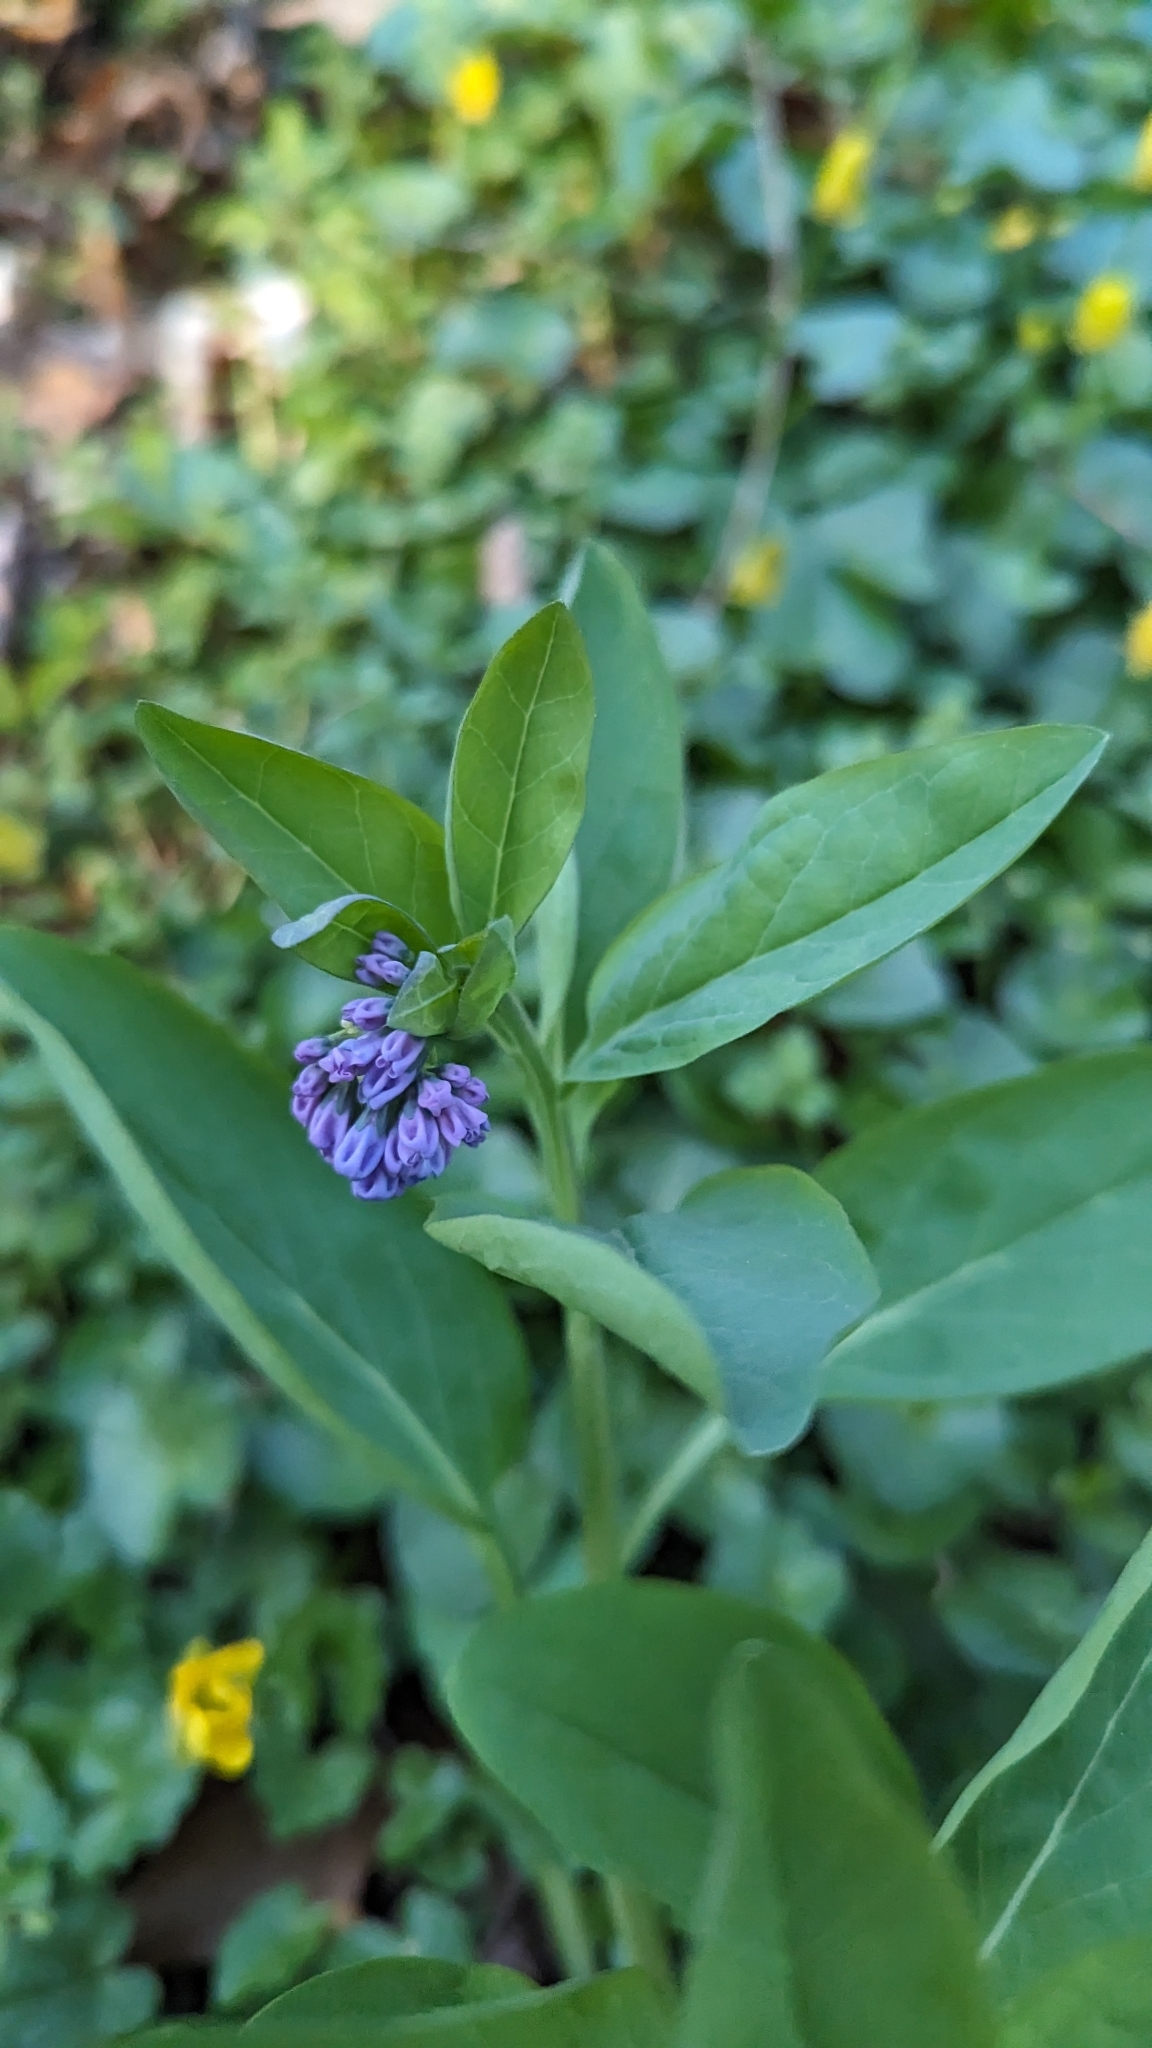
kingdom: Plantae
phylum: Tracheophyta
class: Magnoliopsida
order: Boraginales
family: Boraginaceae
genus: Mertensia
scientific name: Mertensia virginica
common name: Virginia bluebells
